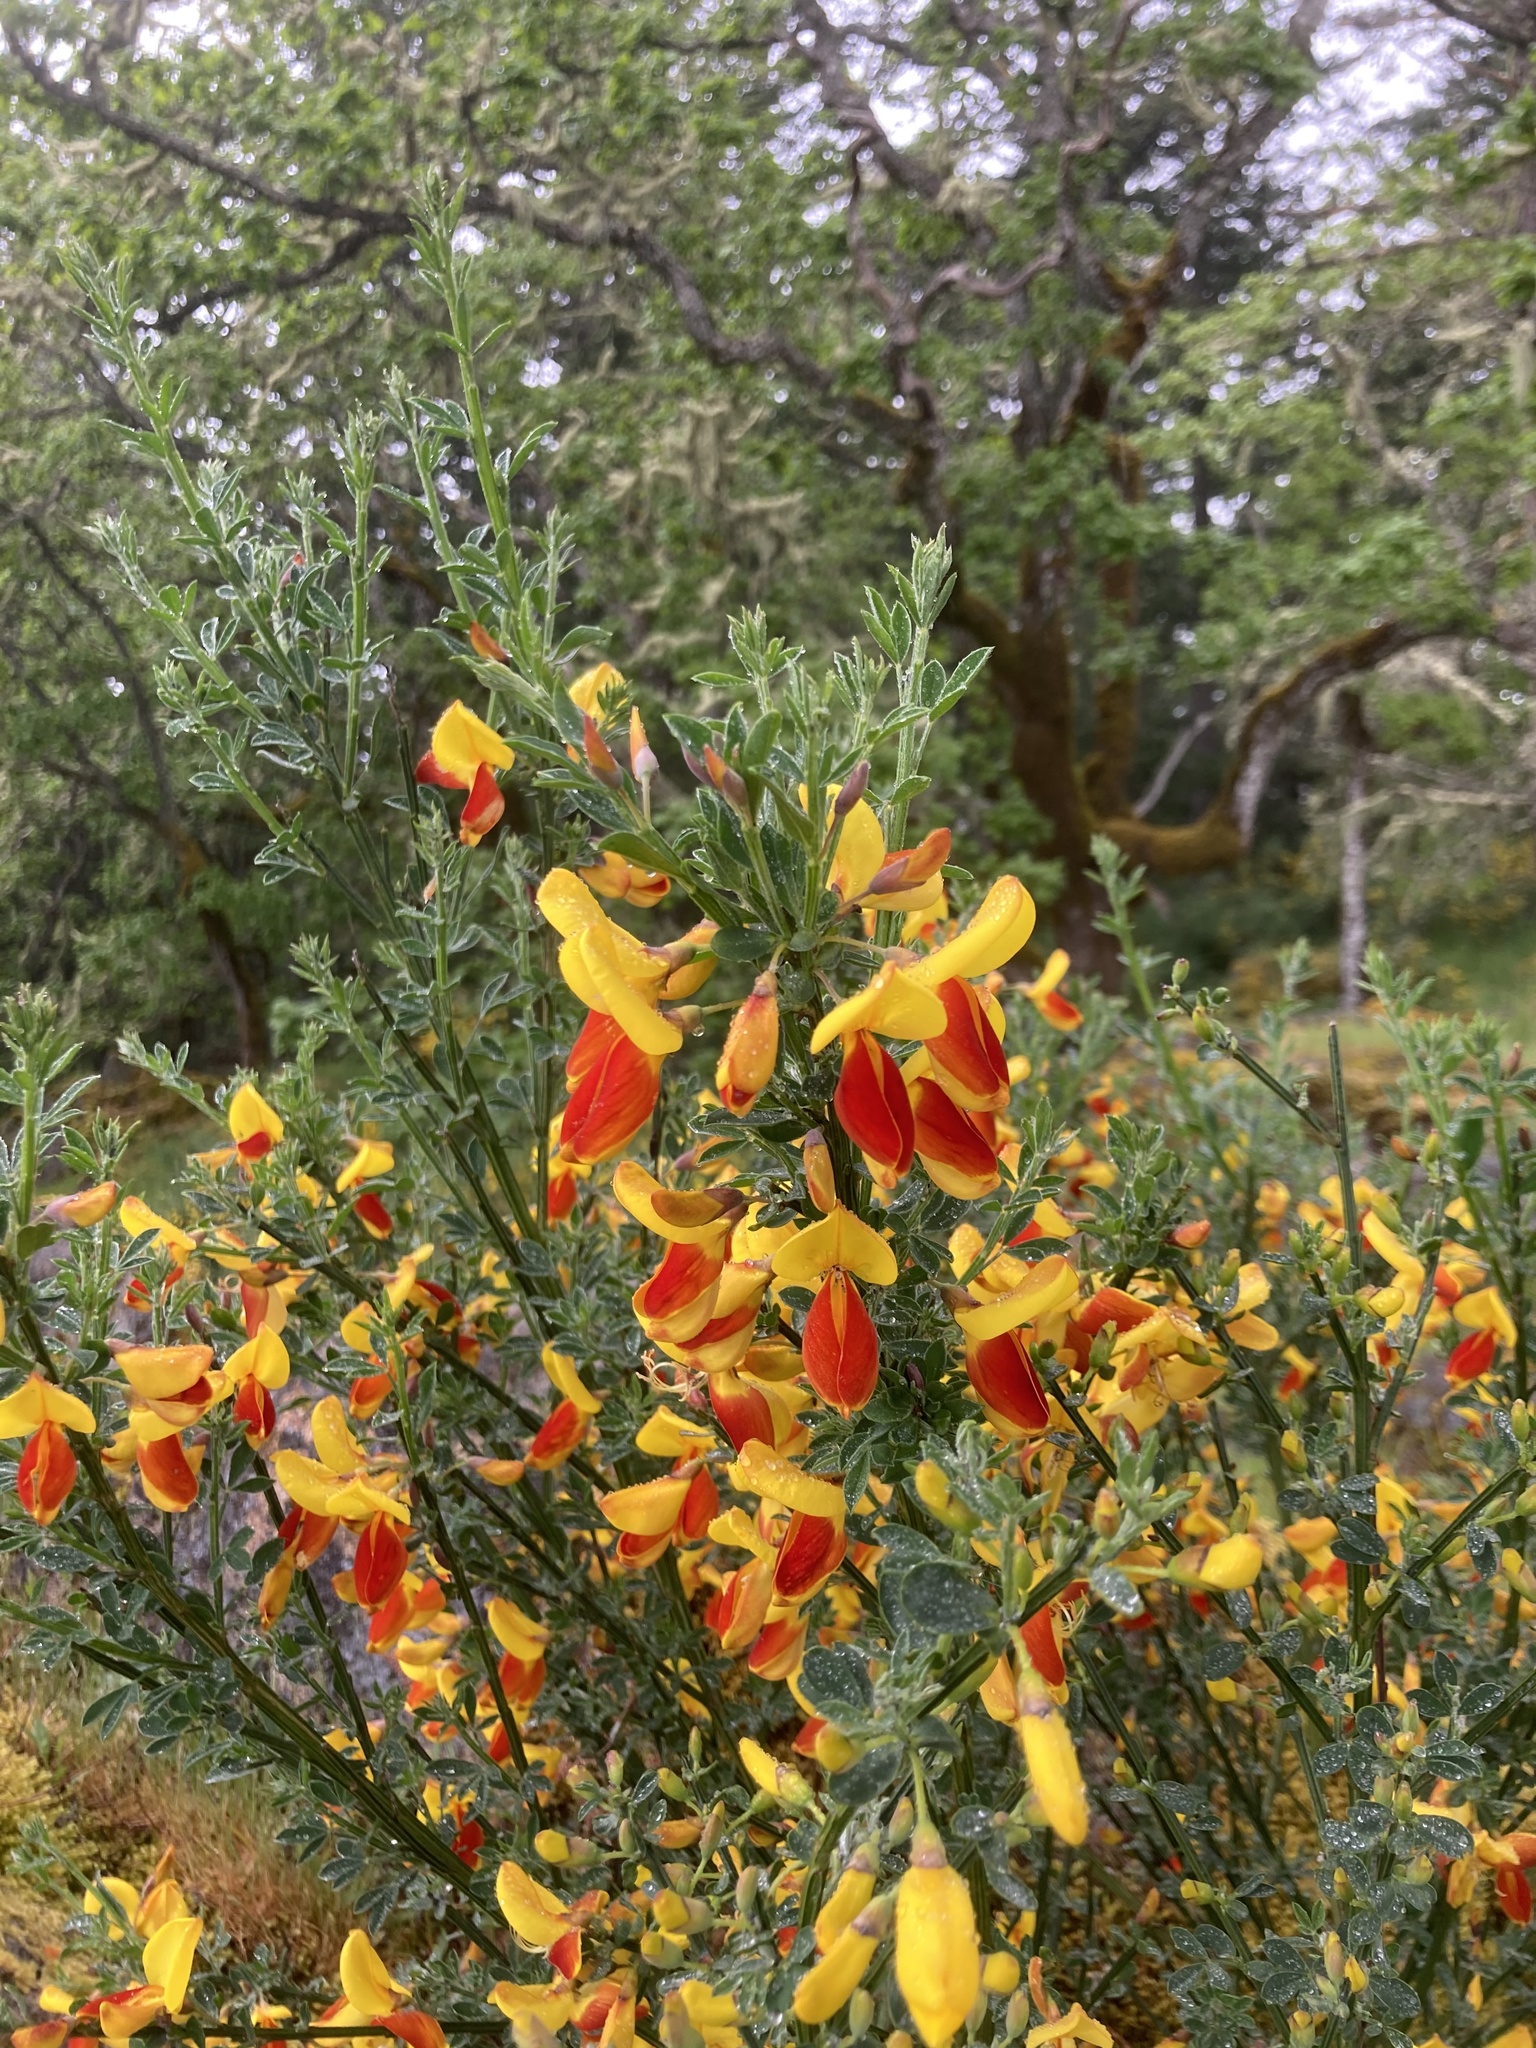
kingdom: Plantae
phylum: Tracheophyta
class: Magnoliopsida
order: Fabales
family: Fabaceae
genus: Cytisus
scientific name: Cytisus scoparius
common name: Scotch broom
